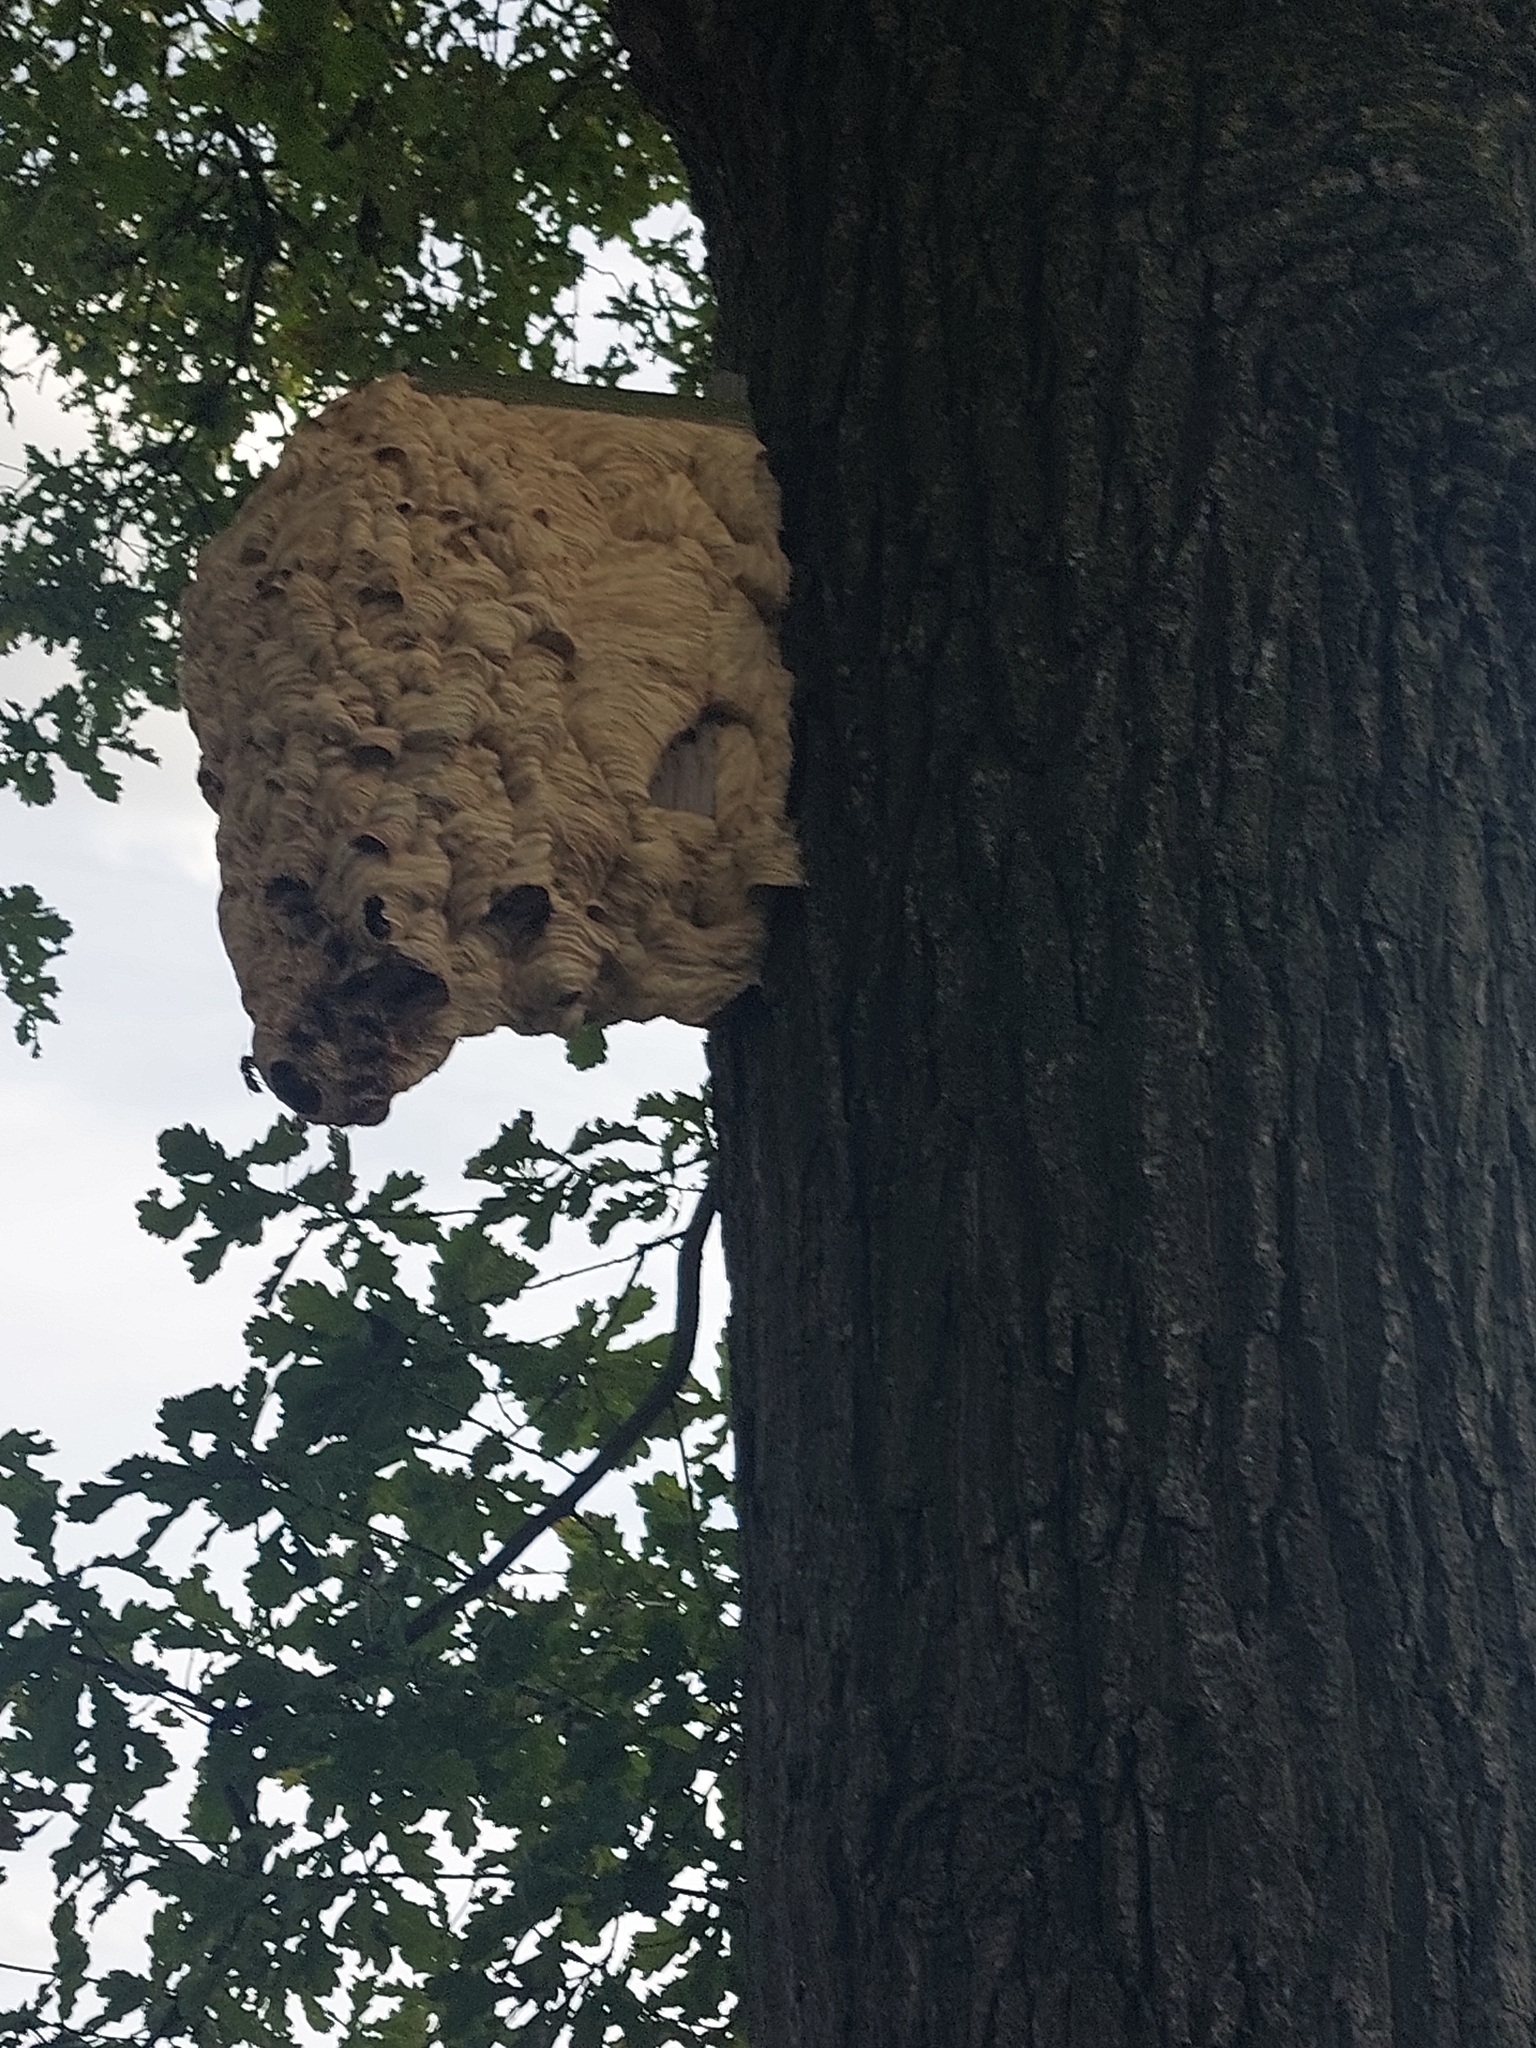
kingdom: Animalia
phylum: Arthropoda
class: Insecta
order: Hymenoptera
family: Vespidae
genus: Vespa
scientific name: Vespa crabro
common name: Hornet
